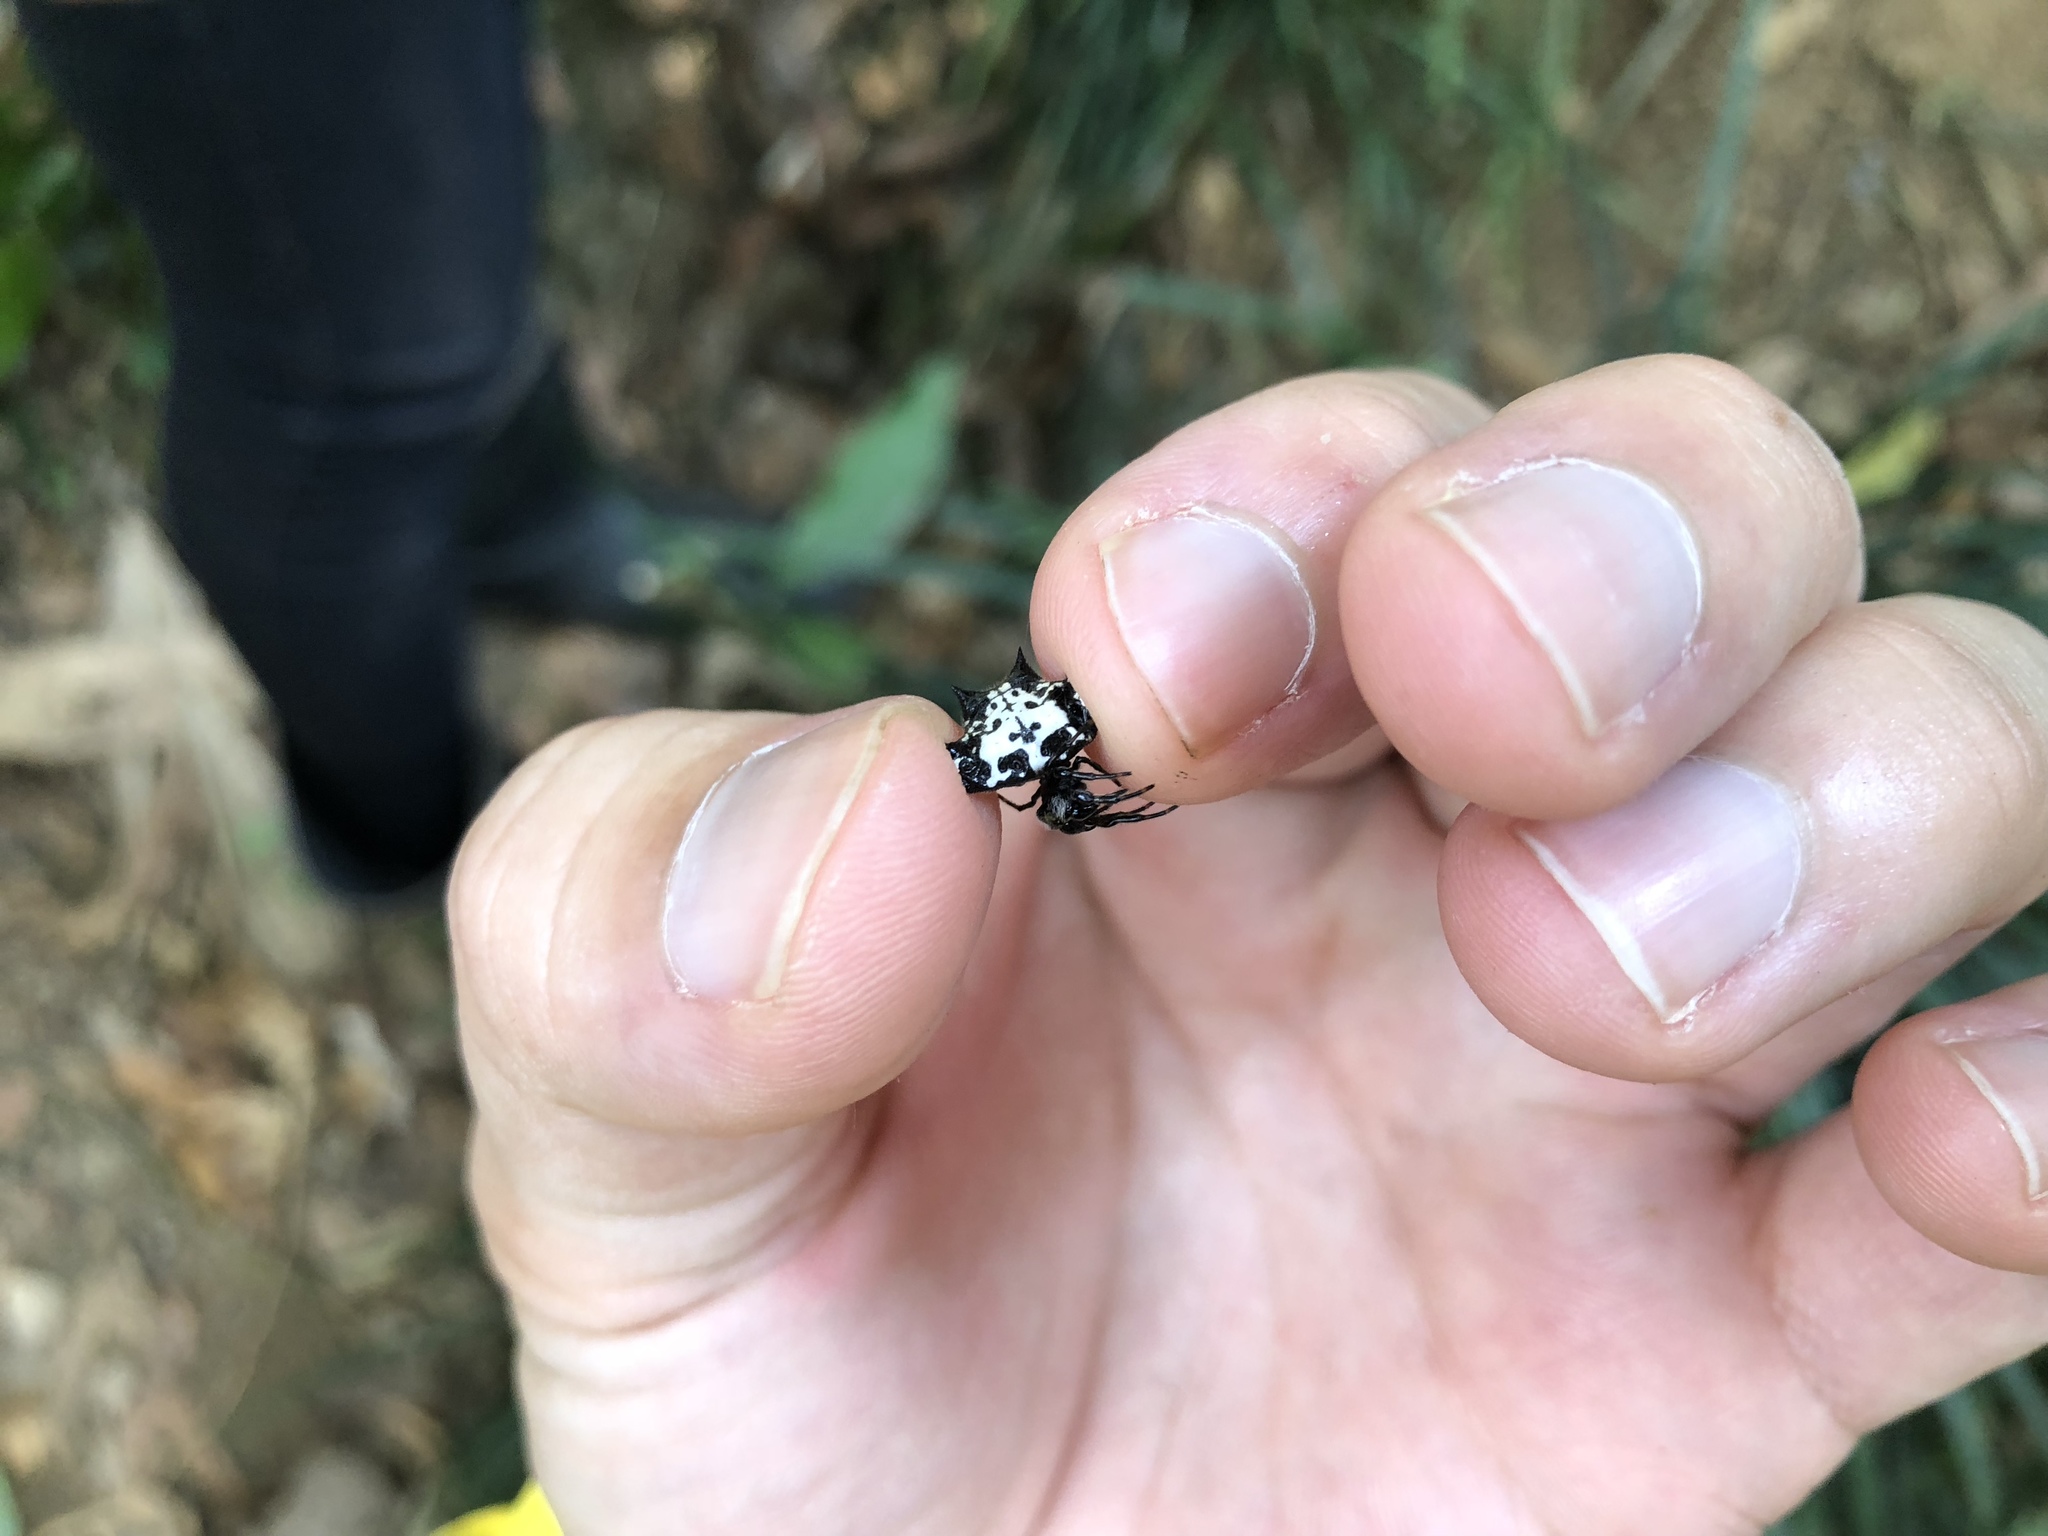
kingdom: Animalia
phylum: Arthropoda
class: Arachnida
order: Araneae
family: Araneidae
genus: Gasteracantha
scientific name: Gasteracantha kuhli
